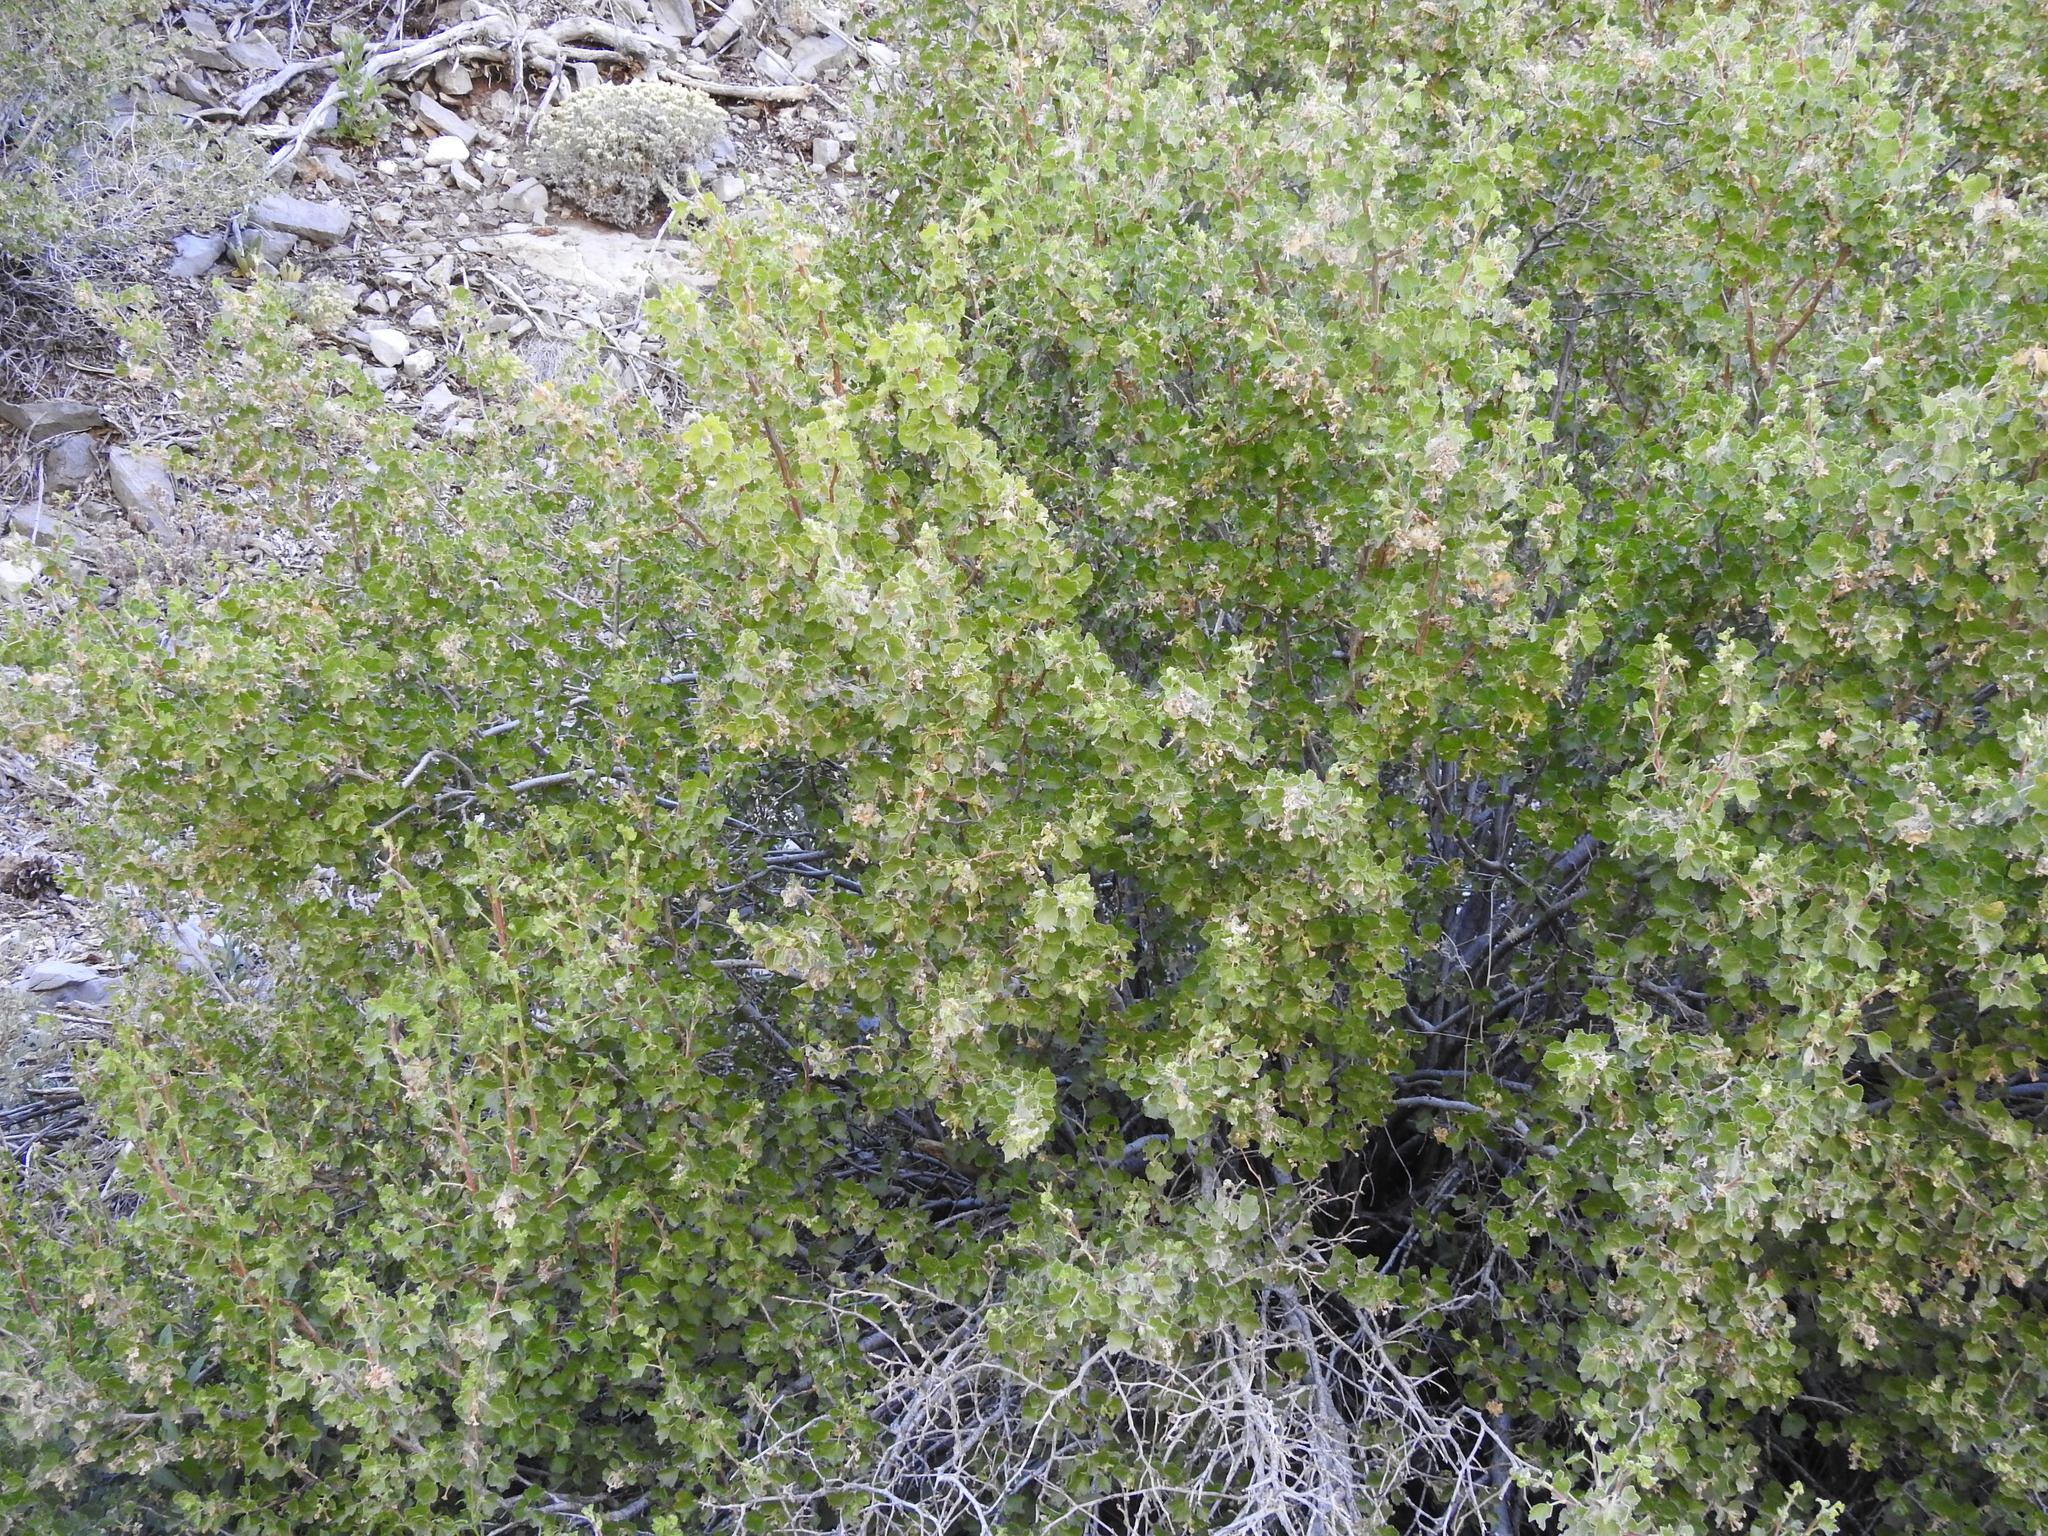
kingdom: Plantae
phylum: Tracheophyta
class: Magnoliopsida
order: Saxifragales
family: Grossulariaceae
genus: Ribes
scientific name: Ribes cereum
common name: Wax currant
